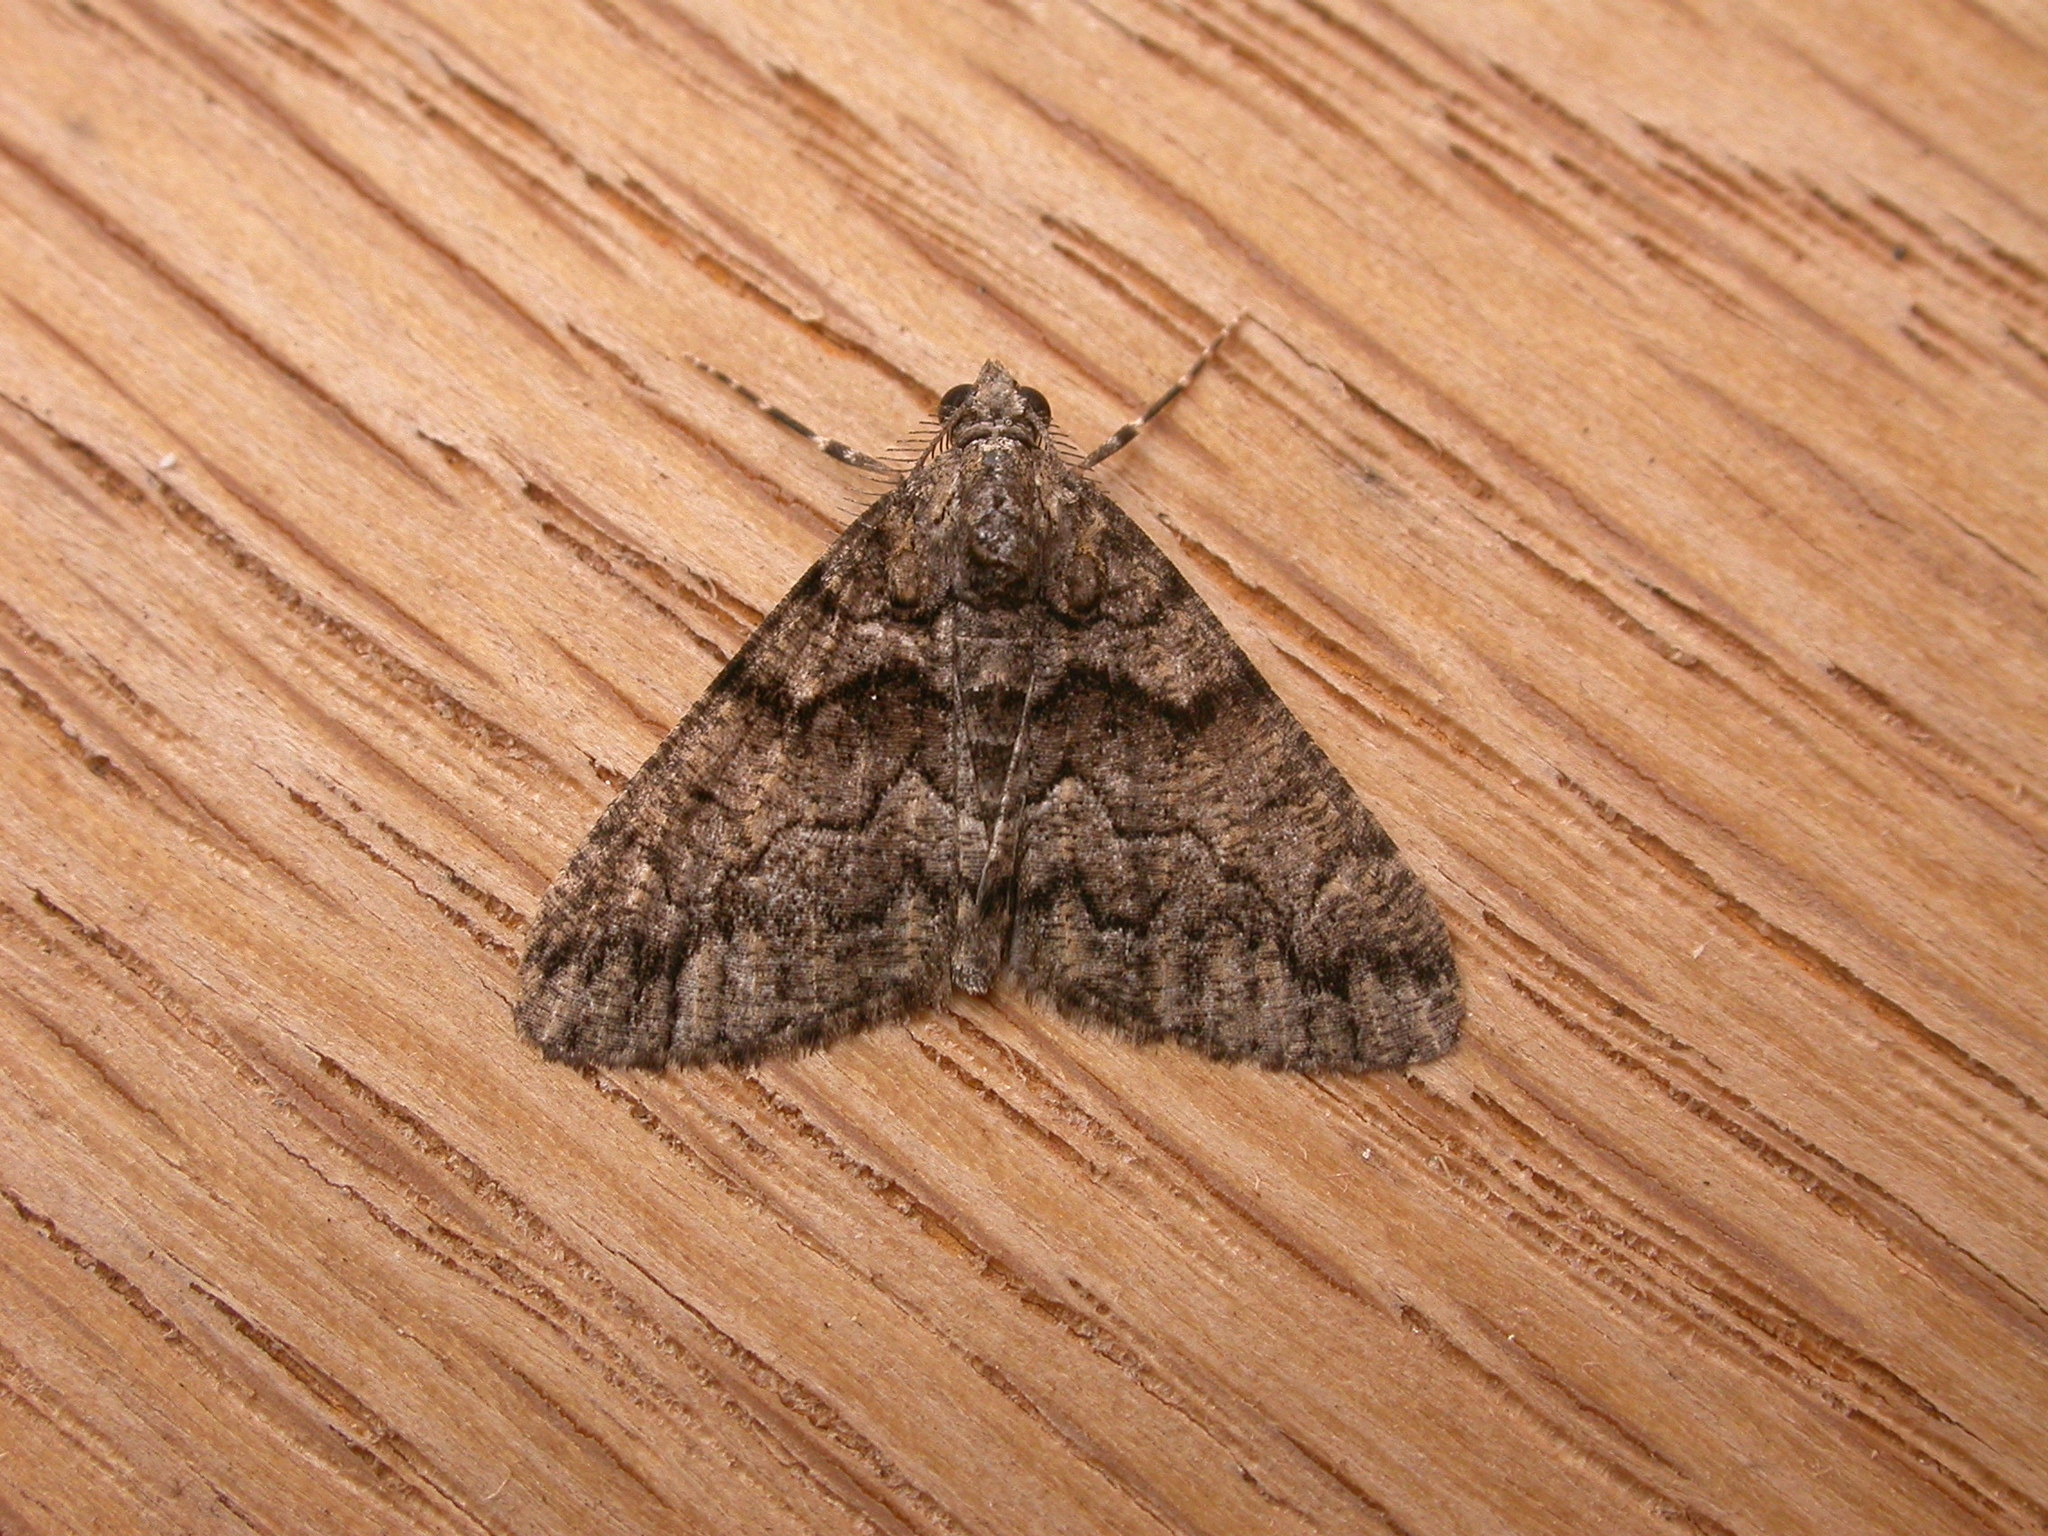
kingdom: Animalia
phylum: Arthropoda
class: Insecta
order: Lepidoptera
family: Geometridae
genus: Lipogya
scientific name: Lipogya exprimataria
